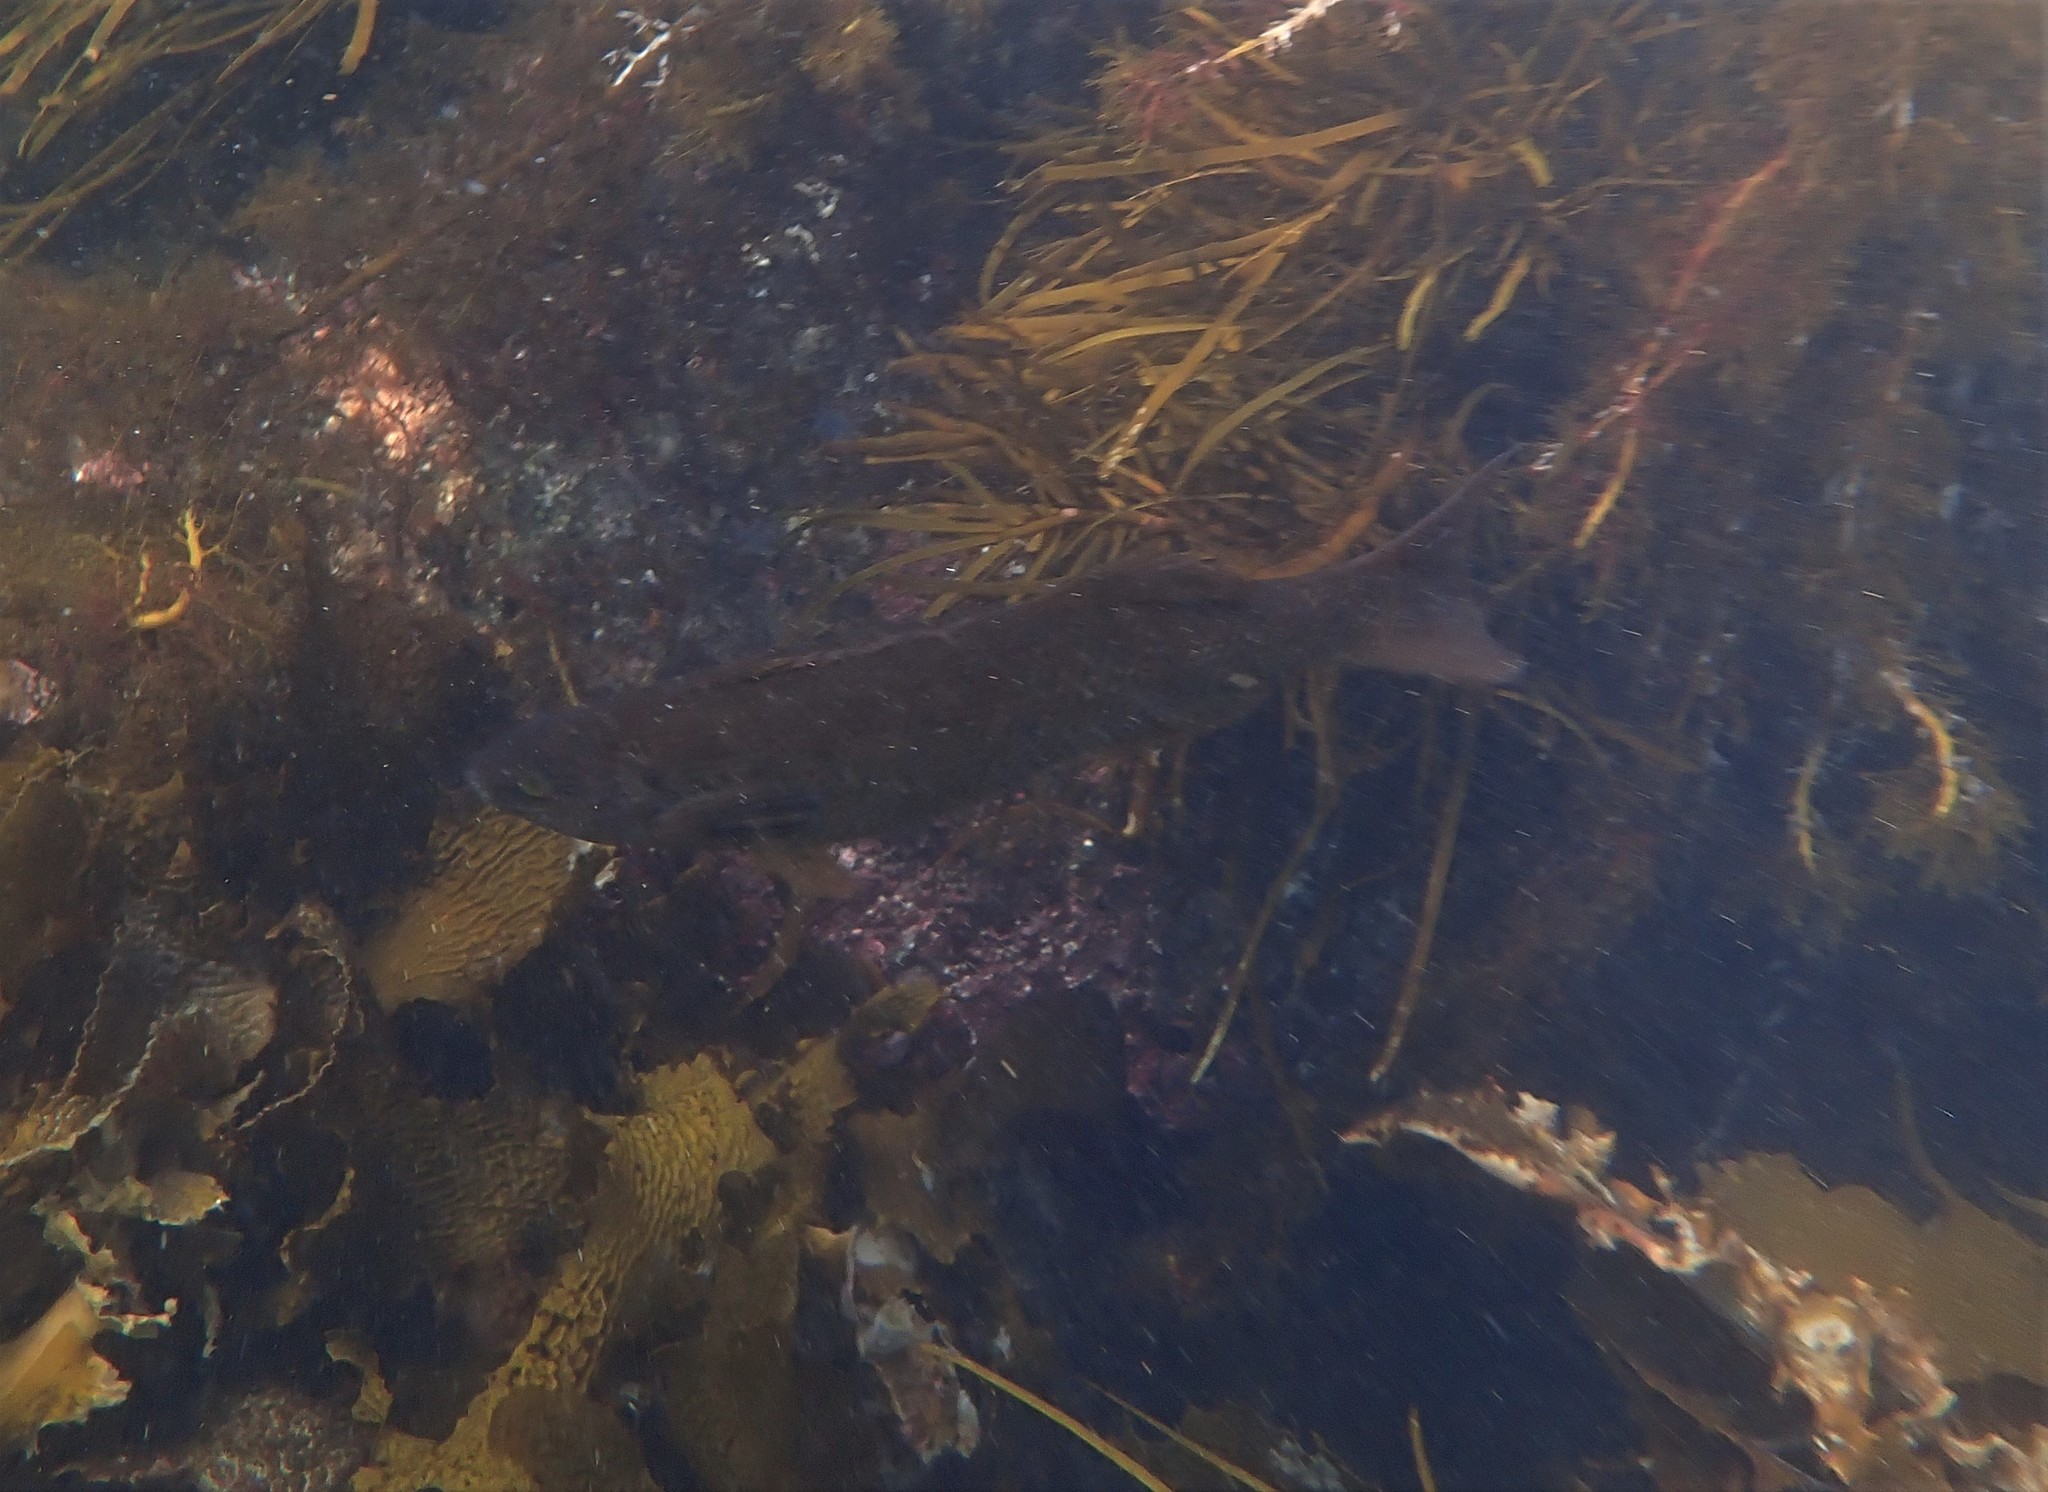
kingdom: Animalia
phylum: Chordata
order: Perciformes
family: Odacidae
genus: Olisthops
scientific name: Olisthops cyanomelas
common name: Herring cale
